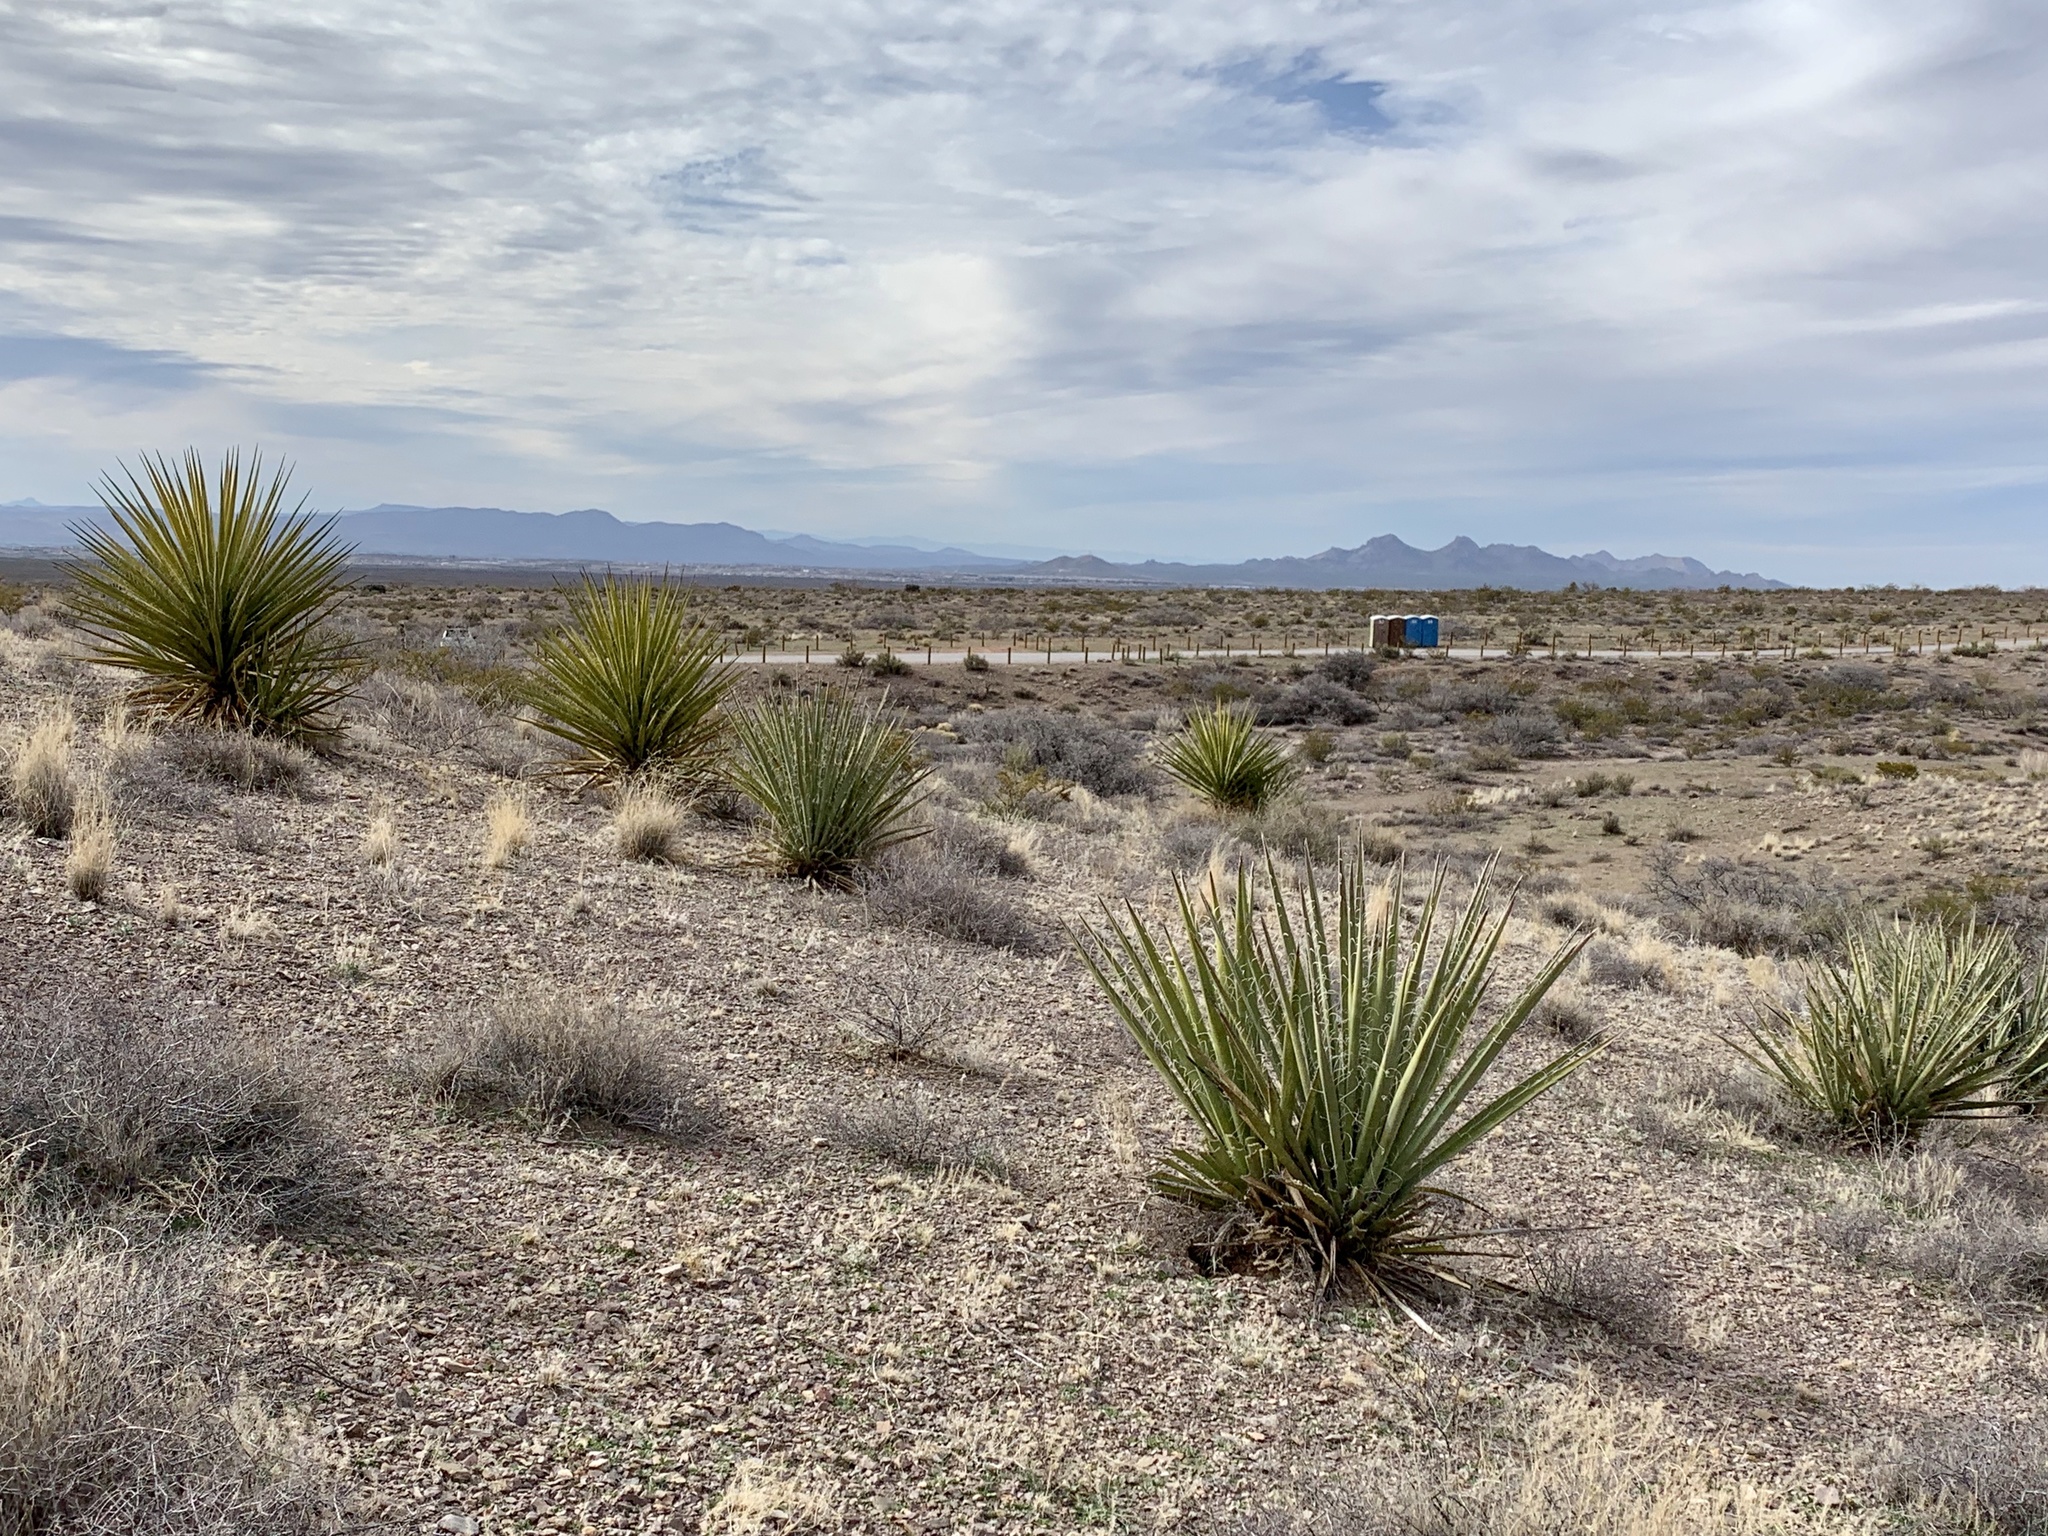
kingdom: Plantae
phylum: Tracheophyta
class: Liliopsida
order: Asparagales
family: Asparagaceae
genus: Yucca
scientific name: Yucca treculiana
